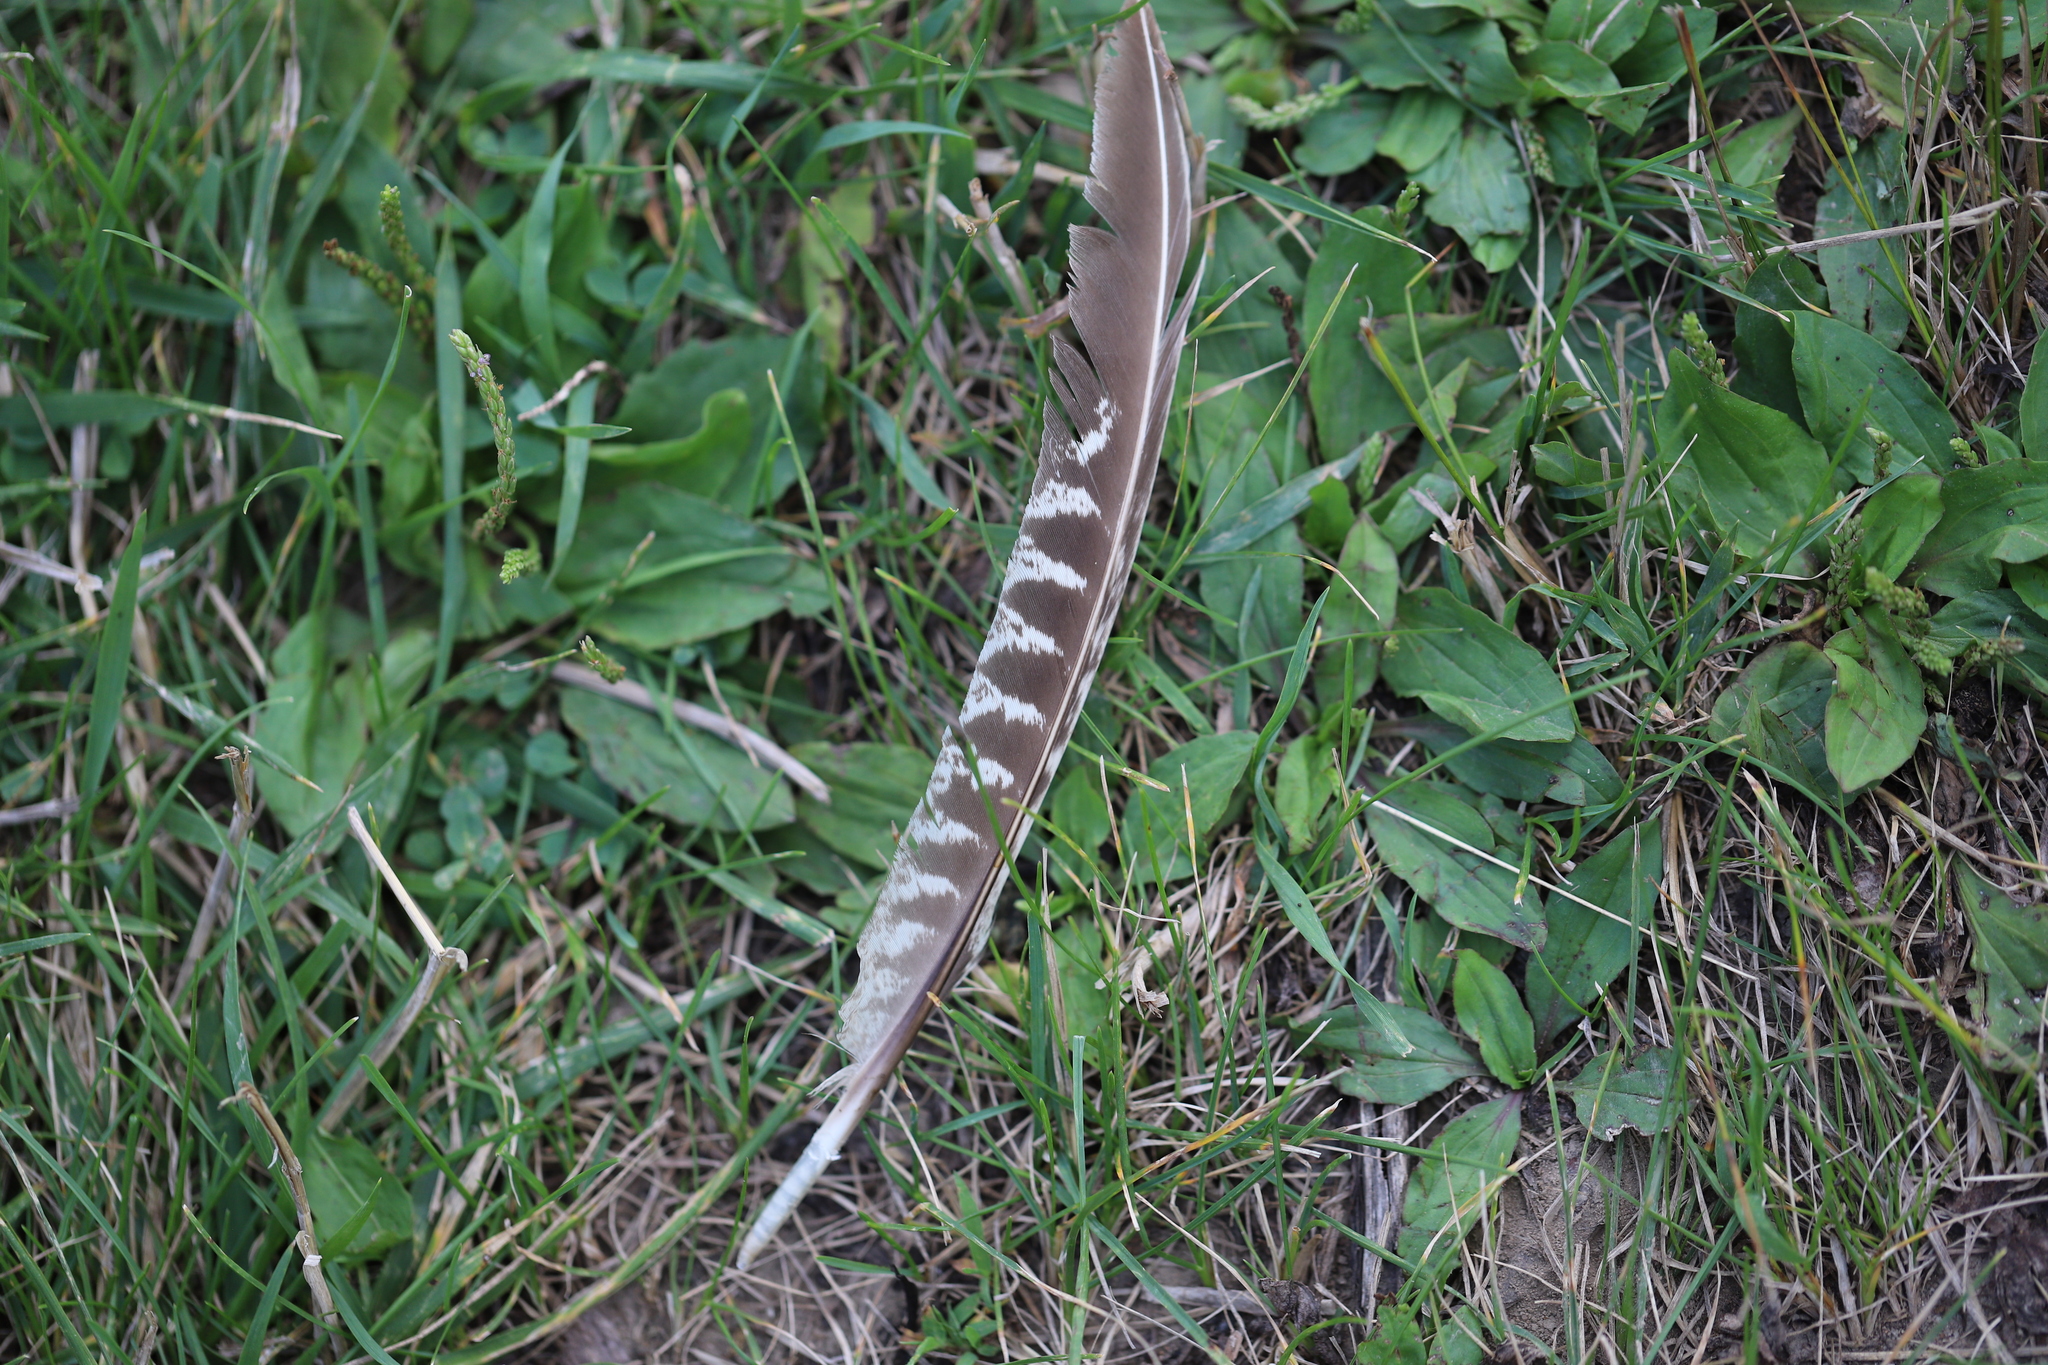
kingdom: Animalia
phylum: Chordata
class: Aves
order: Galliformes
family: Phasianidae
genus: Phasianus
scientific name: Phasianus colchicus
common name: Common pheasant
